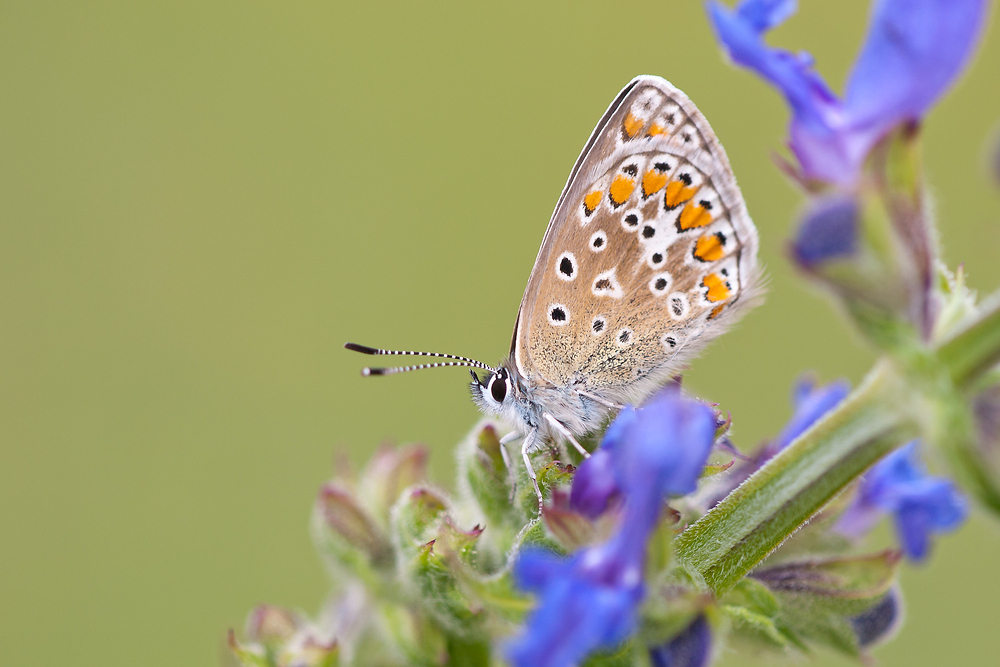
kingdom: Animalia
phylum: Arthropoda
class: Insecta
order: Lepidoptera
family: Lycaenidae
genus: Polyommatus
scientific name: Polyommatus icarus
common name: Common blue
